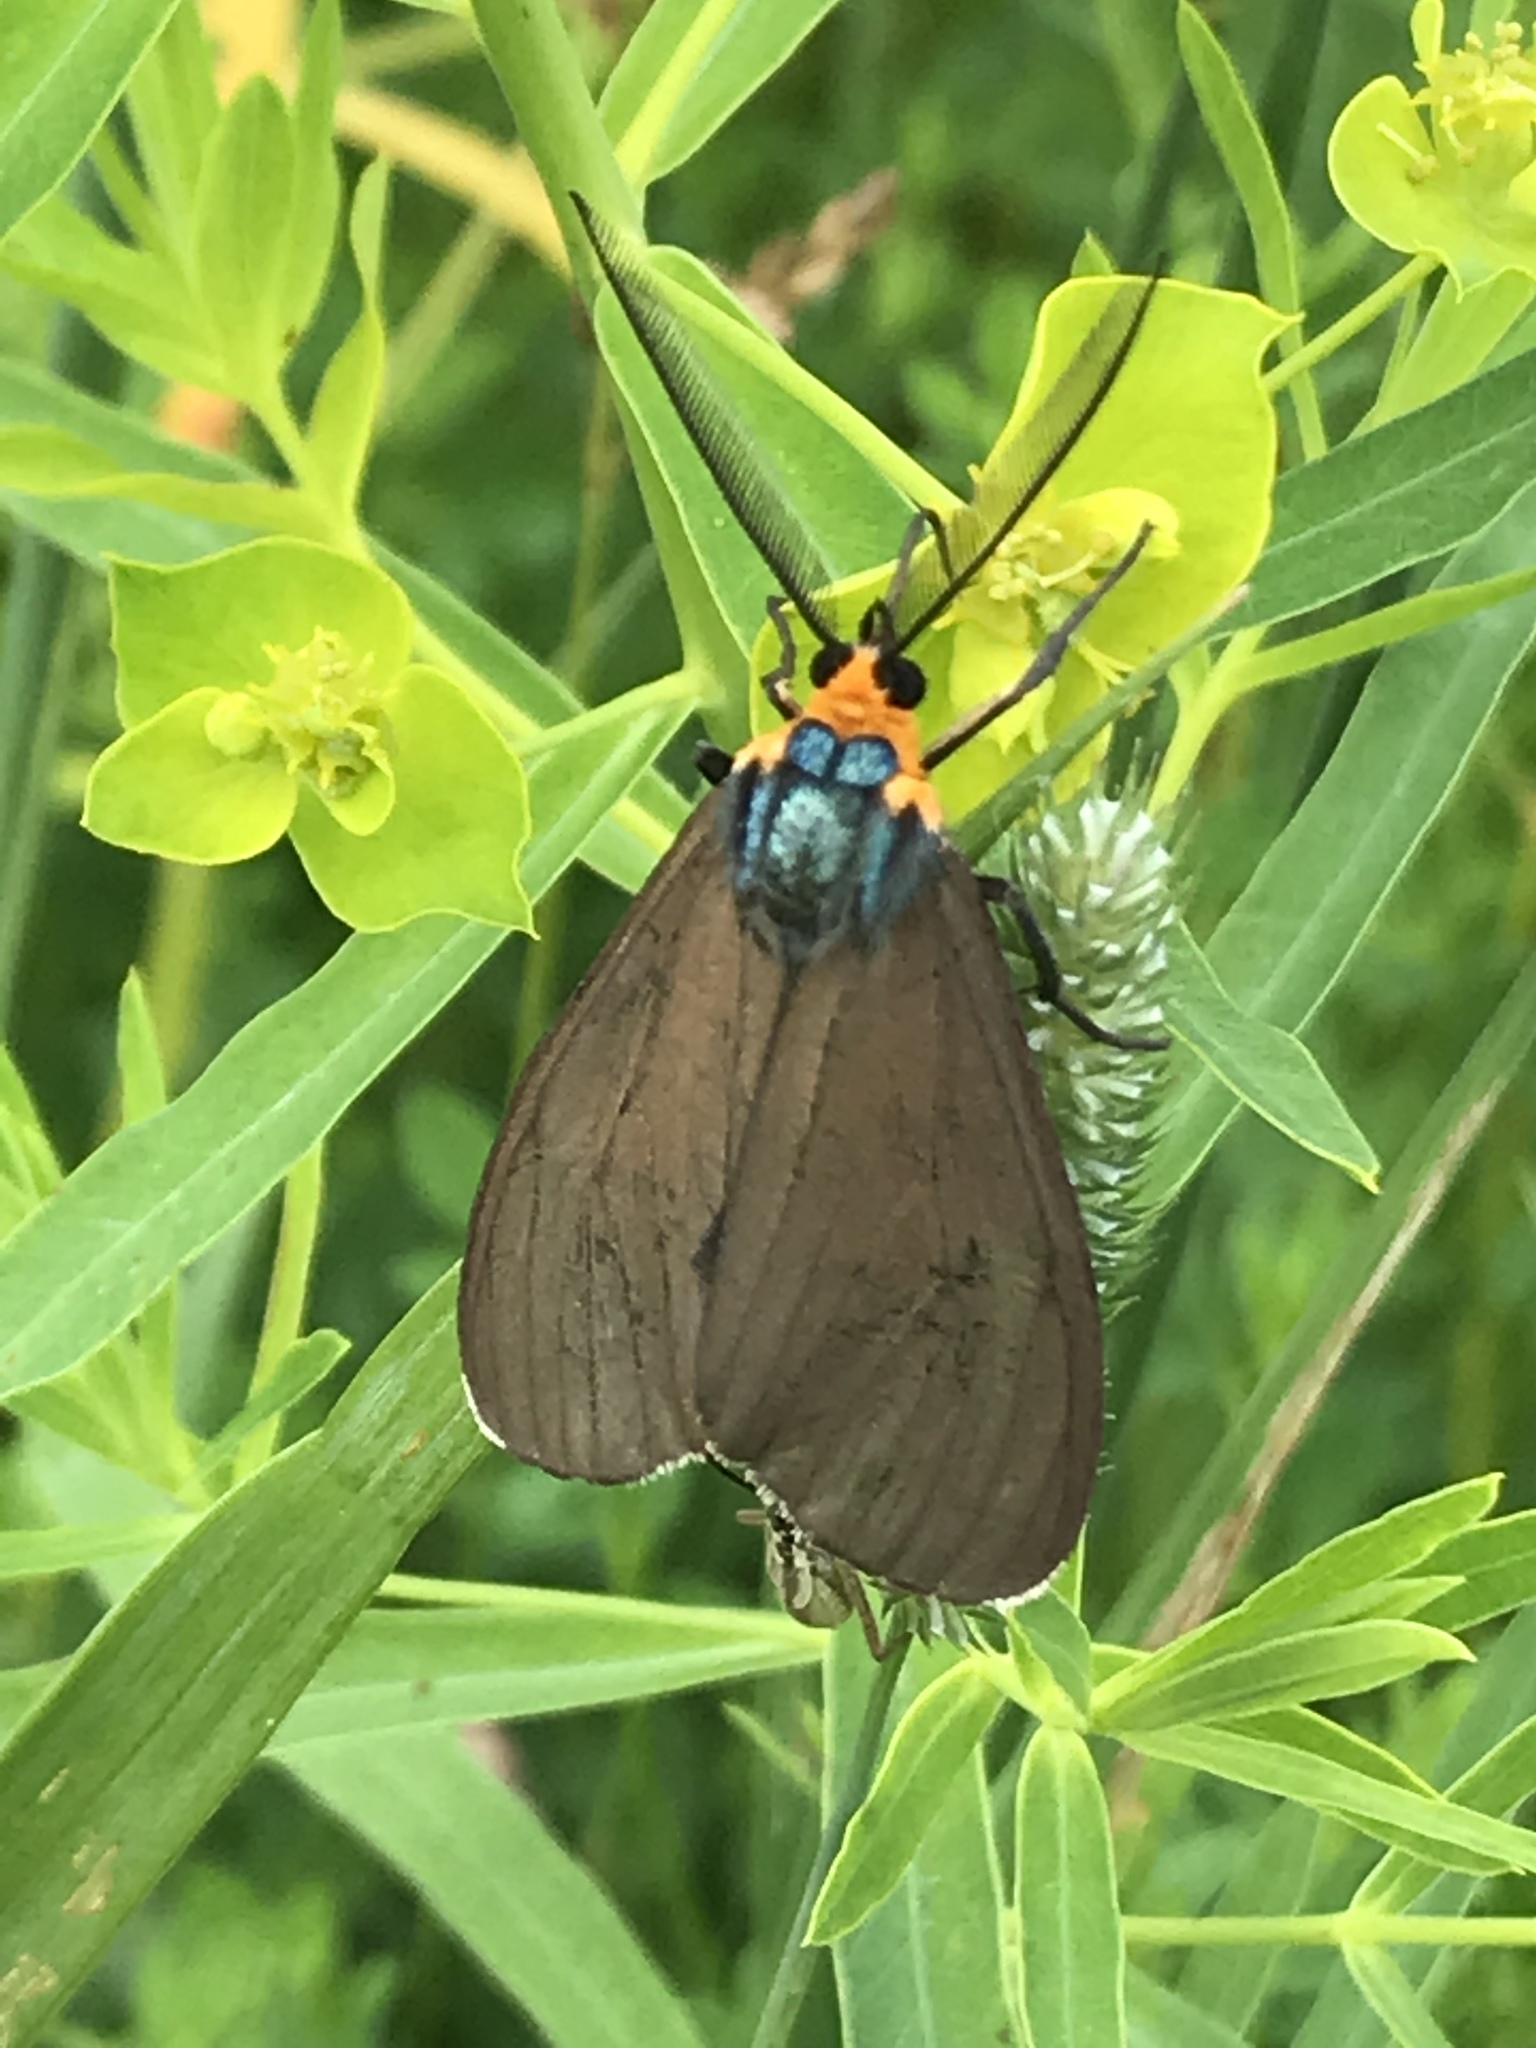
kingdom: Animalia
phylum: Arthropoda
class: Insecta
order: Lepidoptera
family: Erebidae
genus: Ctenucha
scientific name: Ctenucha virginica
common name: Virginia ctenucha moth
